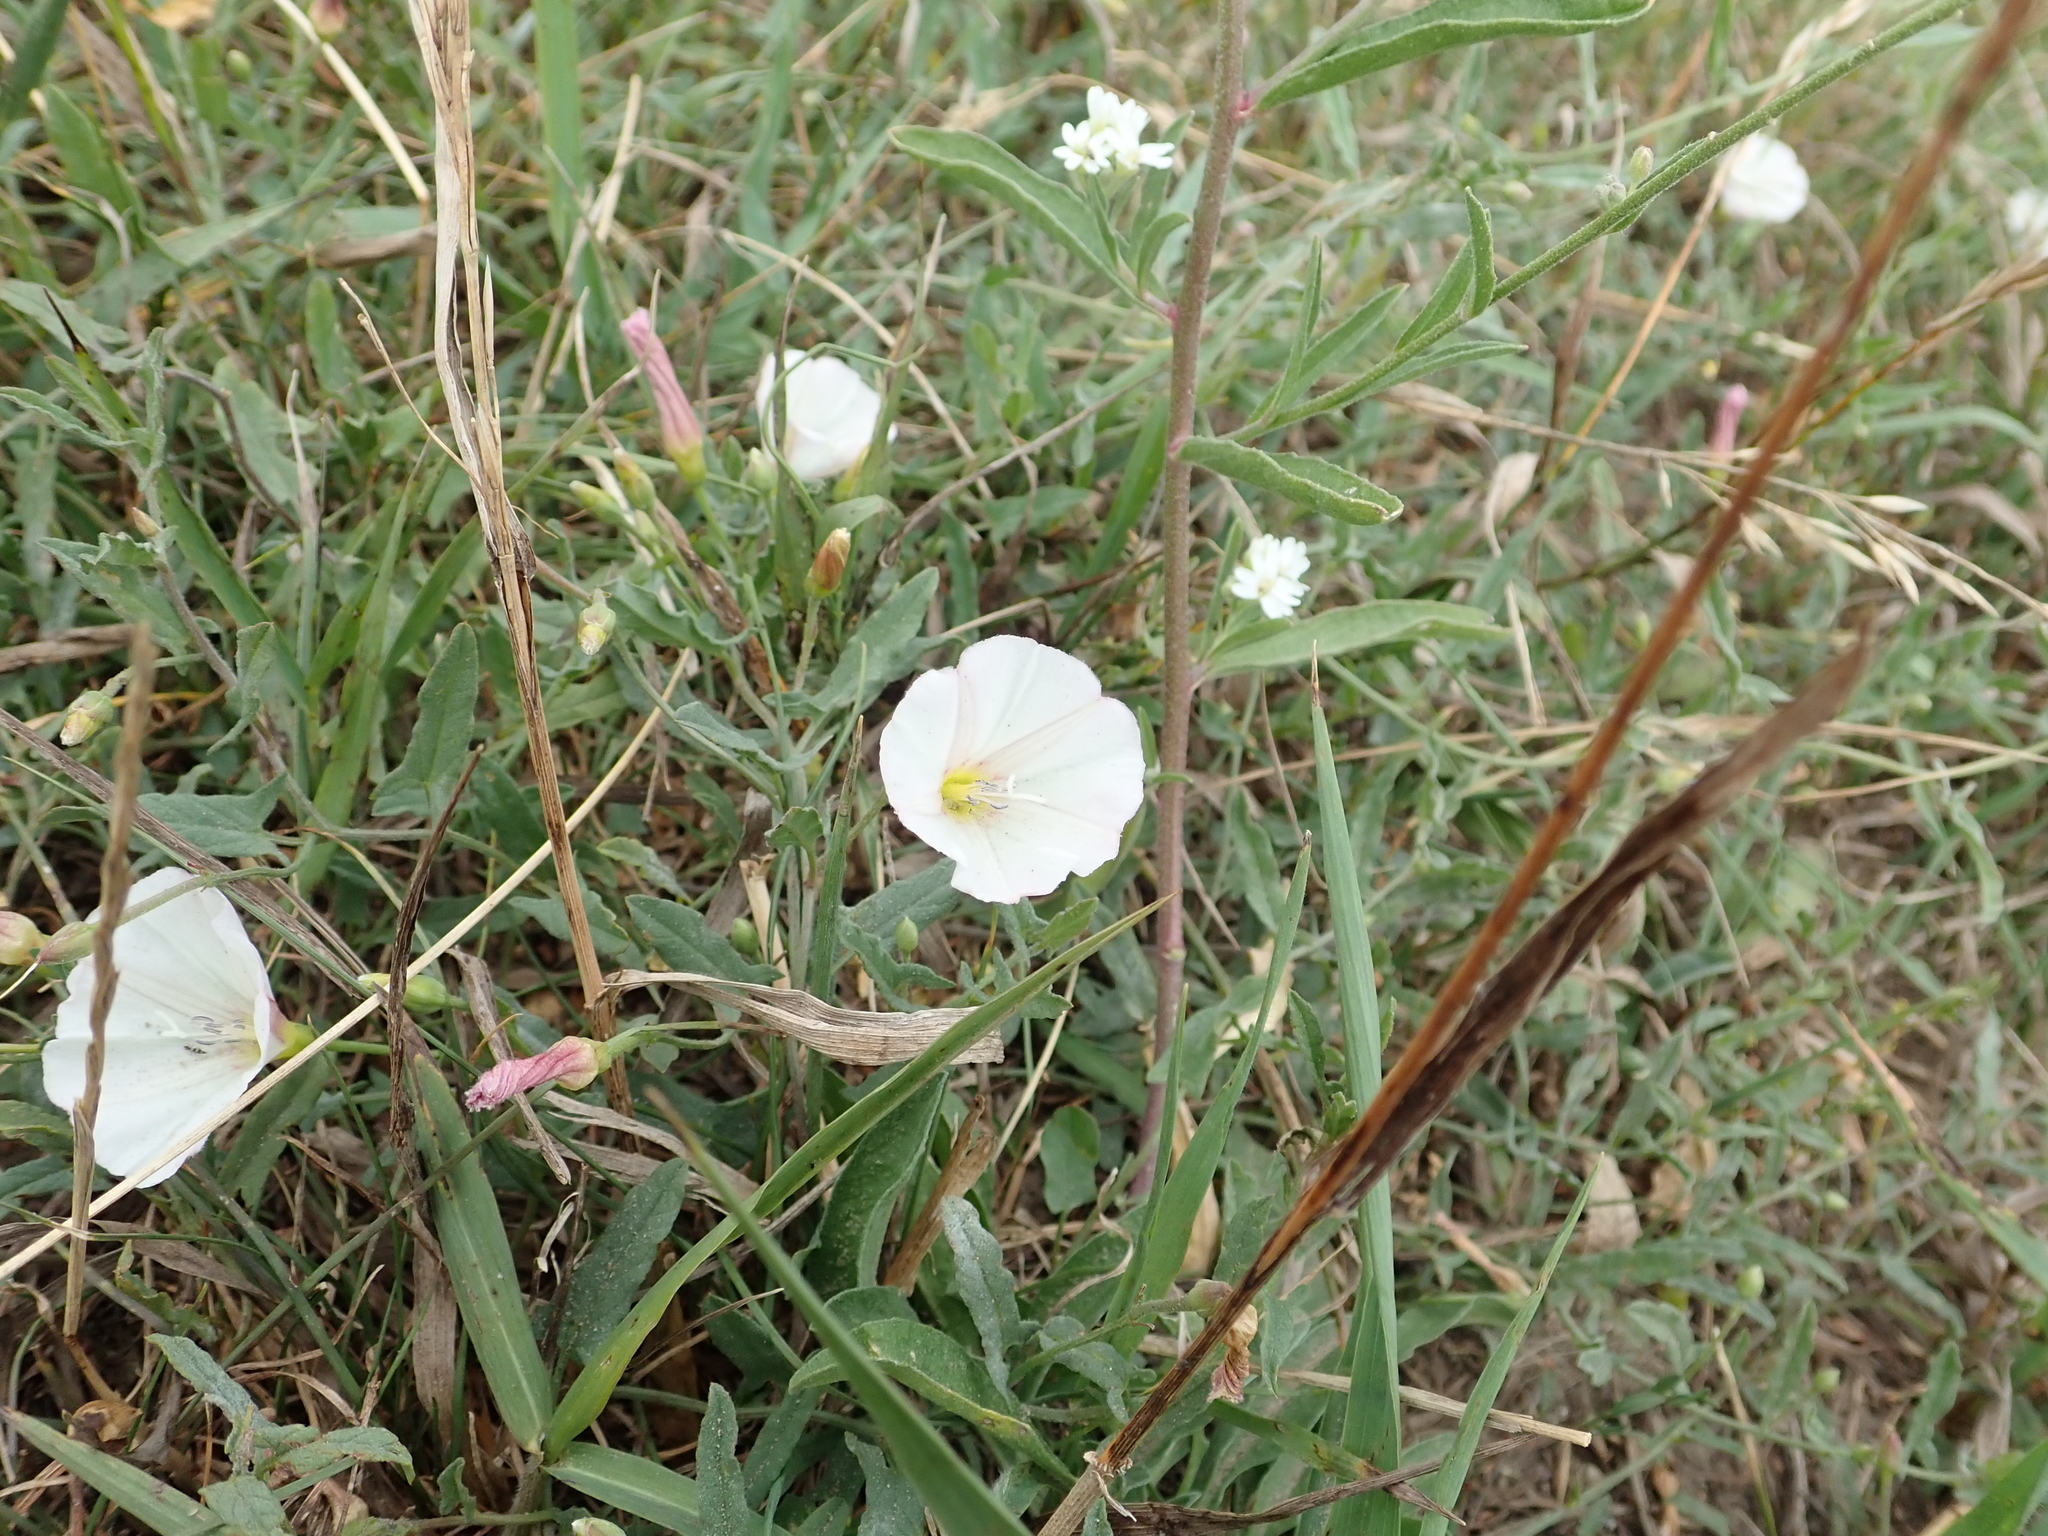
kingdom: Plantae
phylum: Tracheophyta
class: Magnoliopsida
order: Solanales
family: Convolvulaceae
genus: Convolvulus
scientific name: Convolvulus arvensis
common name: Field bindweed
